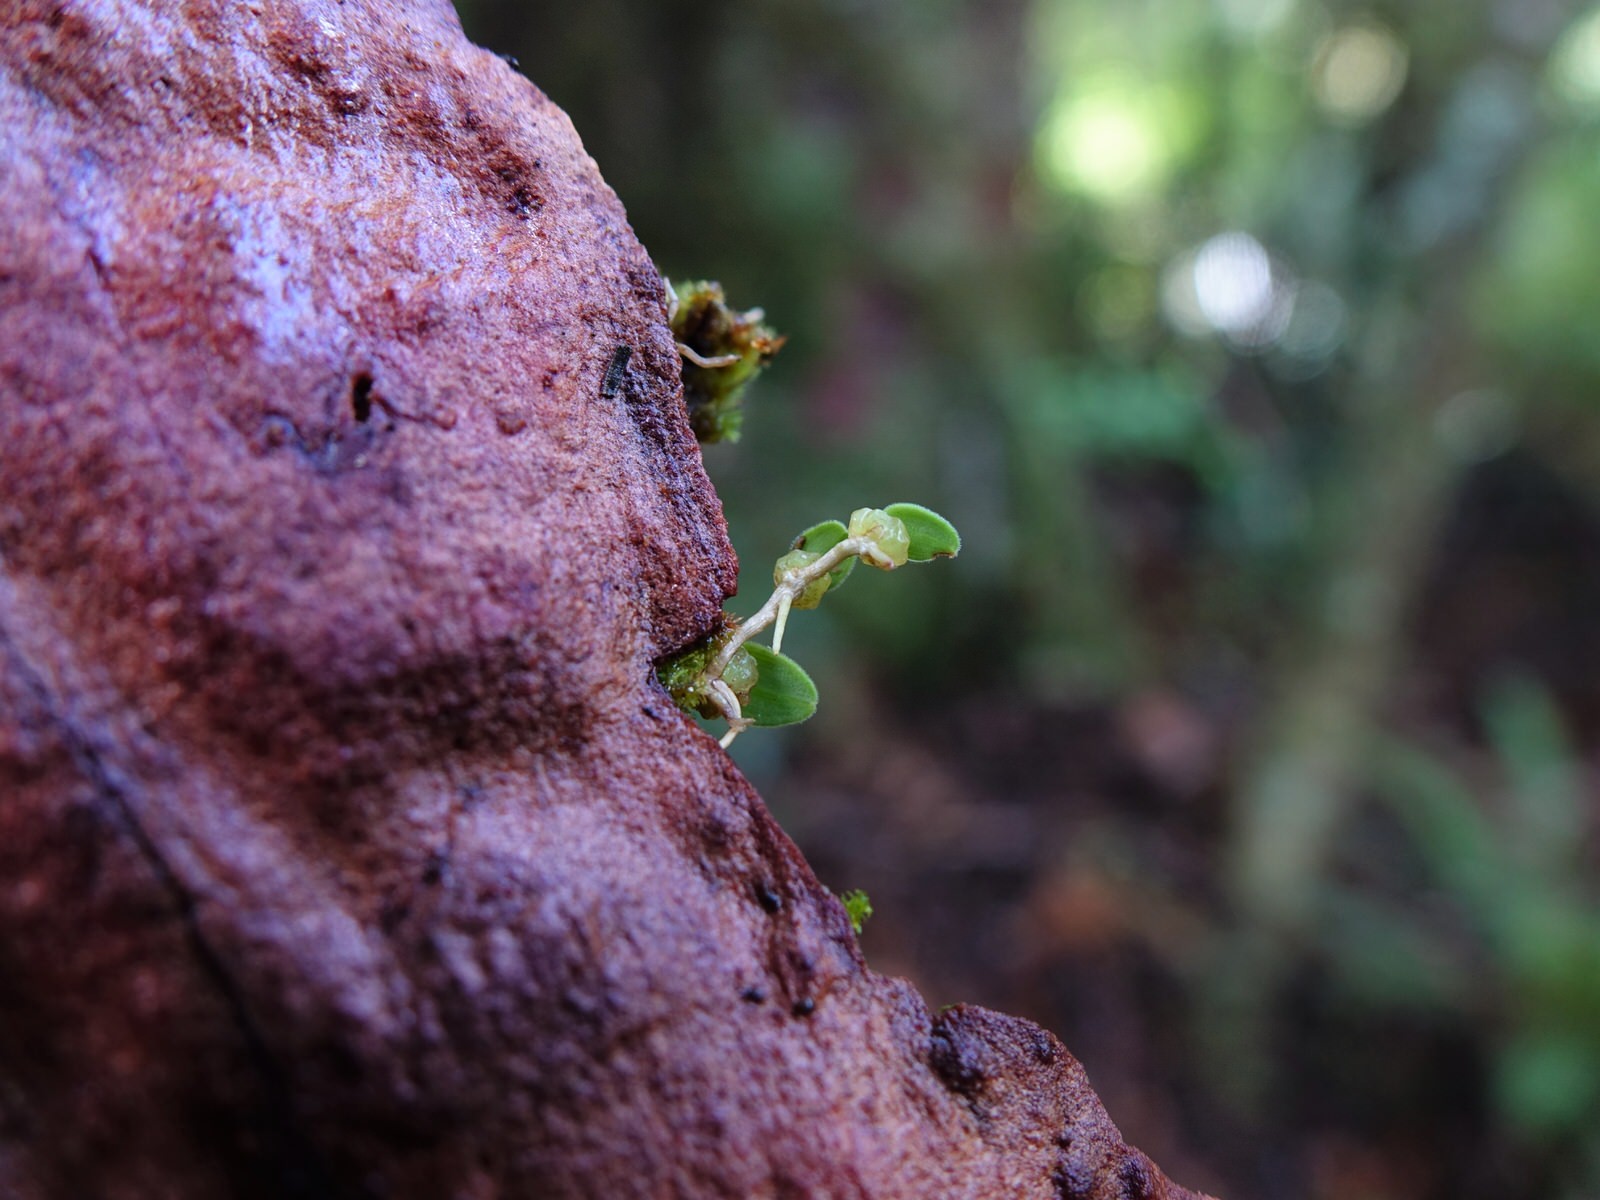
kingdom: Plantae
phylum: Tracheophyta
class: Liliopsida
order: Asparagales
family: Orchidaceae
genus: Bulbophyllum
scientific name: Bulbophyllum pygmaeum
